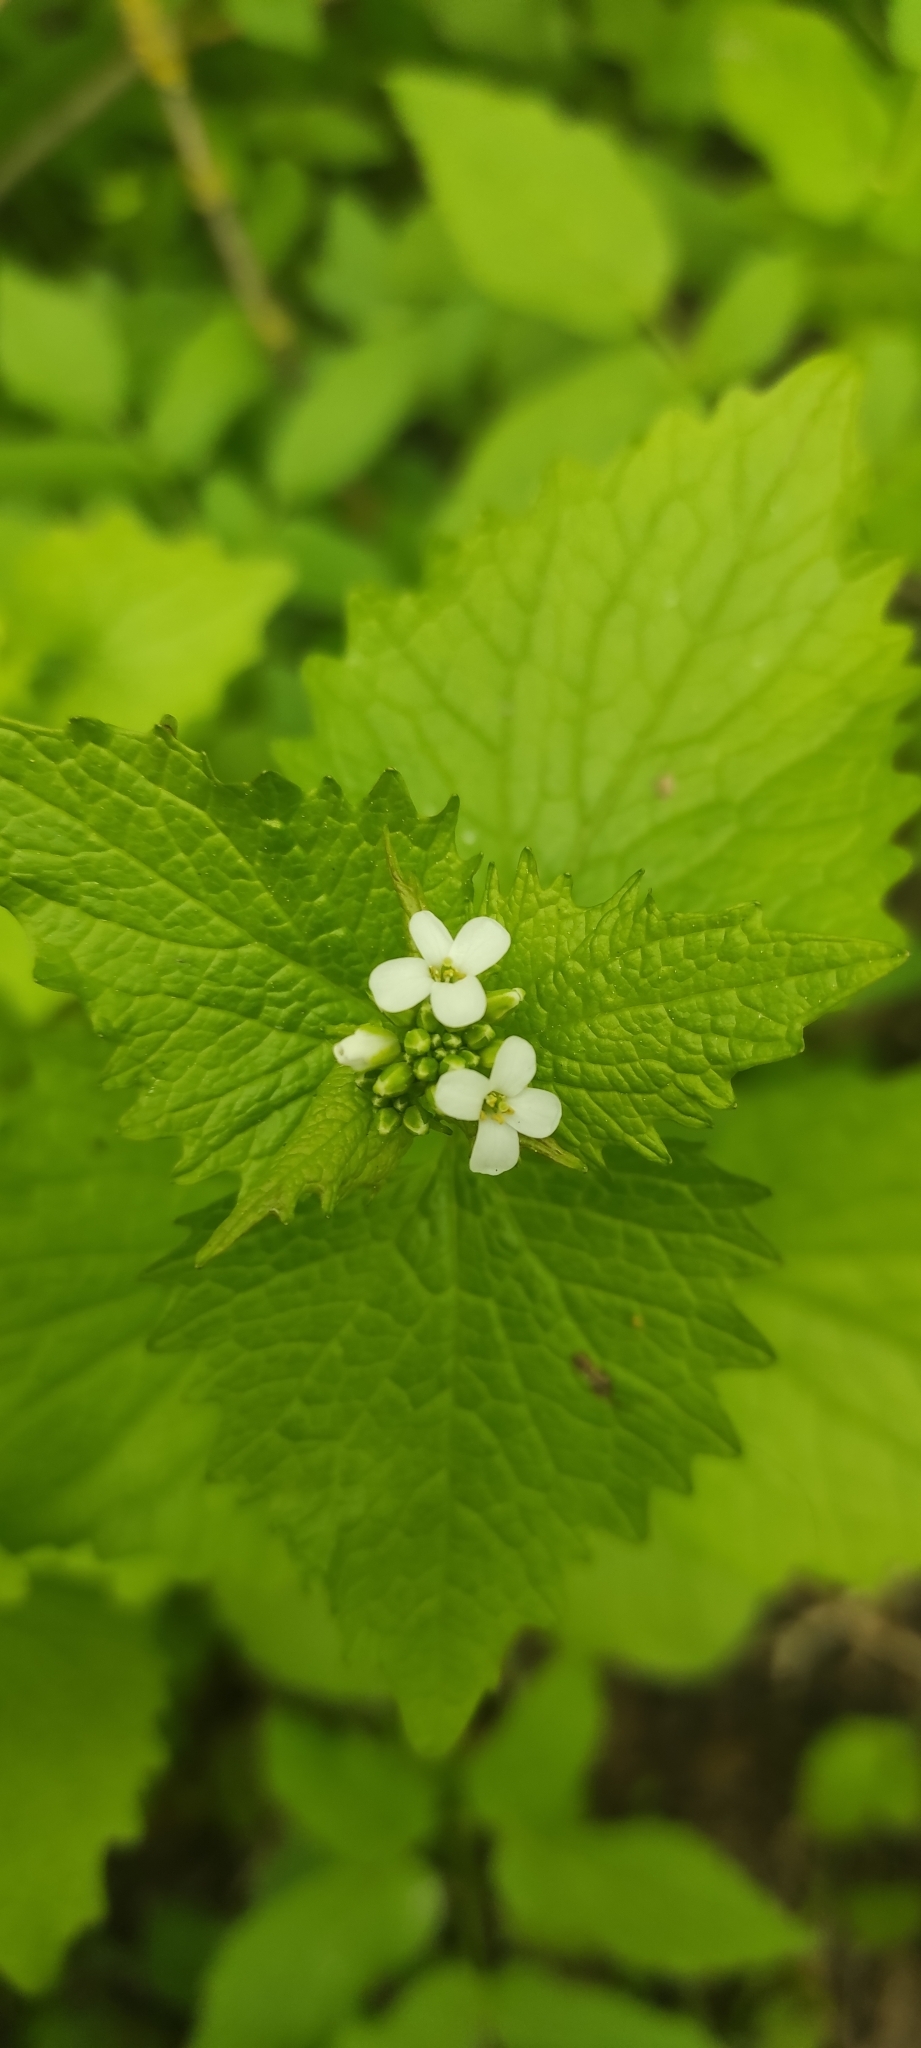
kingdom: Plantae
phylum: Tracheophyta
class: Magnoliopsida
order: Brassicales
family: Brassicaceae
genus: Alliaria
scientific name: Alliaria petiolata
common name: Garlic mustard
